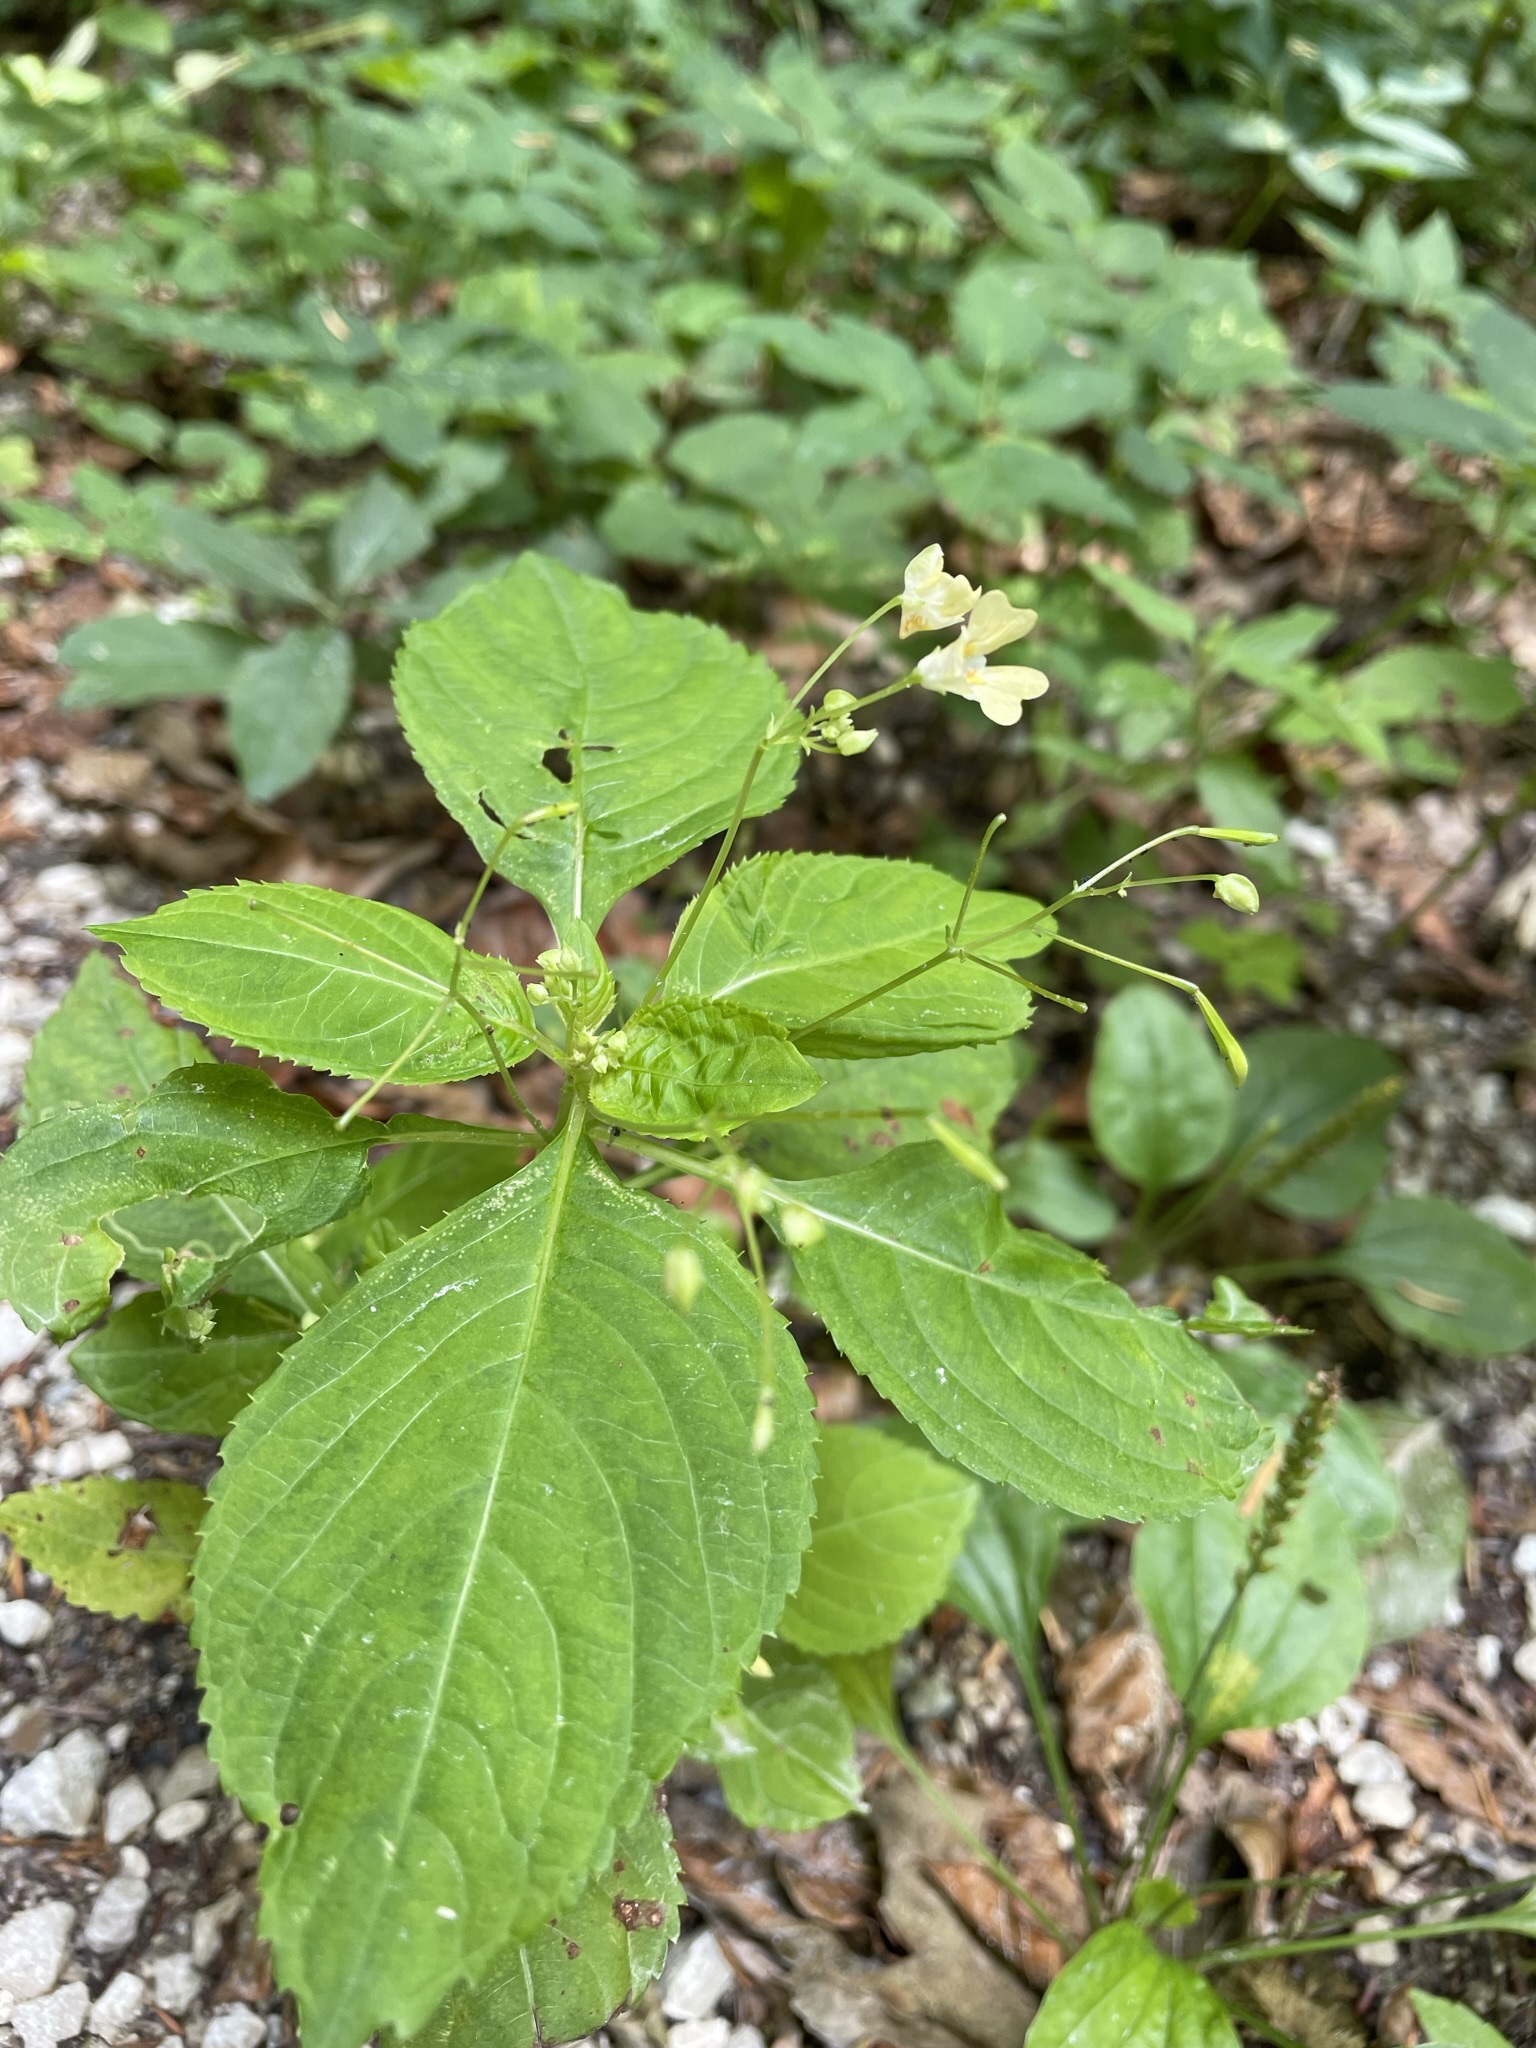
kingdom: Plantae
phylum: Tracheophyta
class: Magnoliopsida
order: Ericales
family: Balsaminaceae
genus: Impatiens
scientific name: Impatiens parviflora
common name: Small balsam
